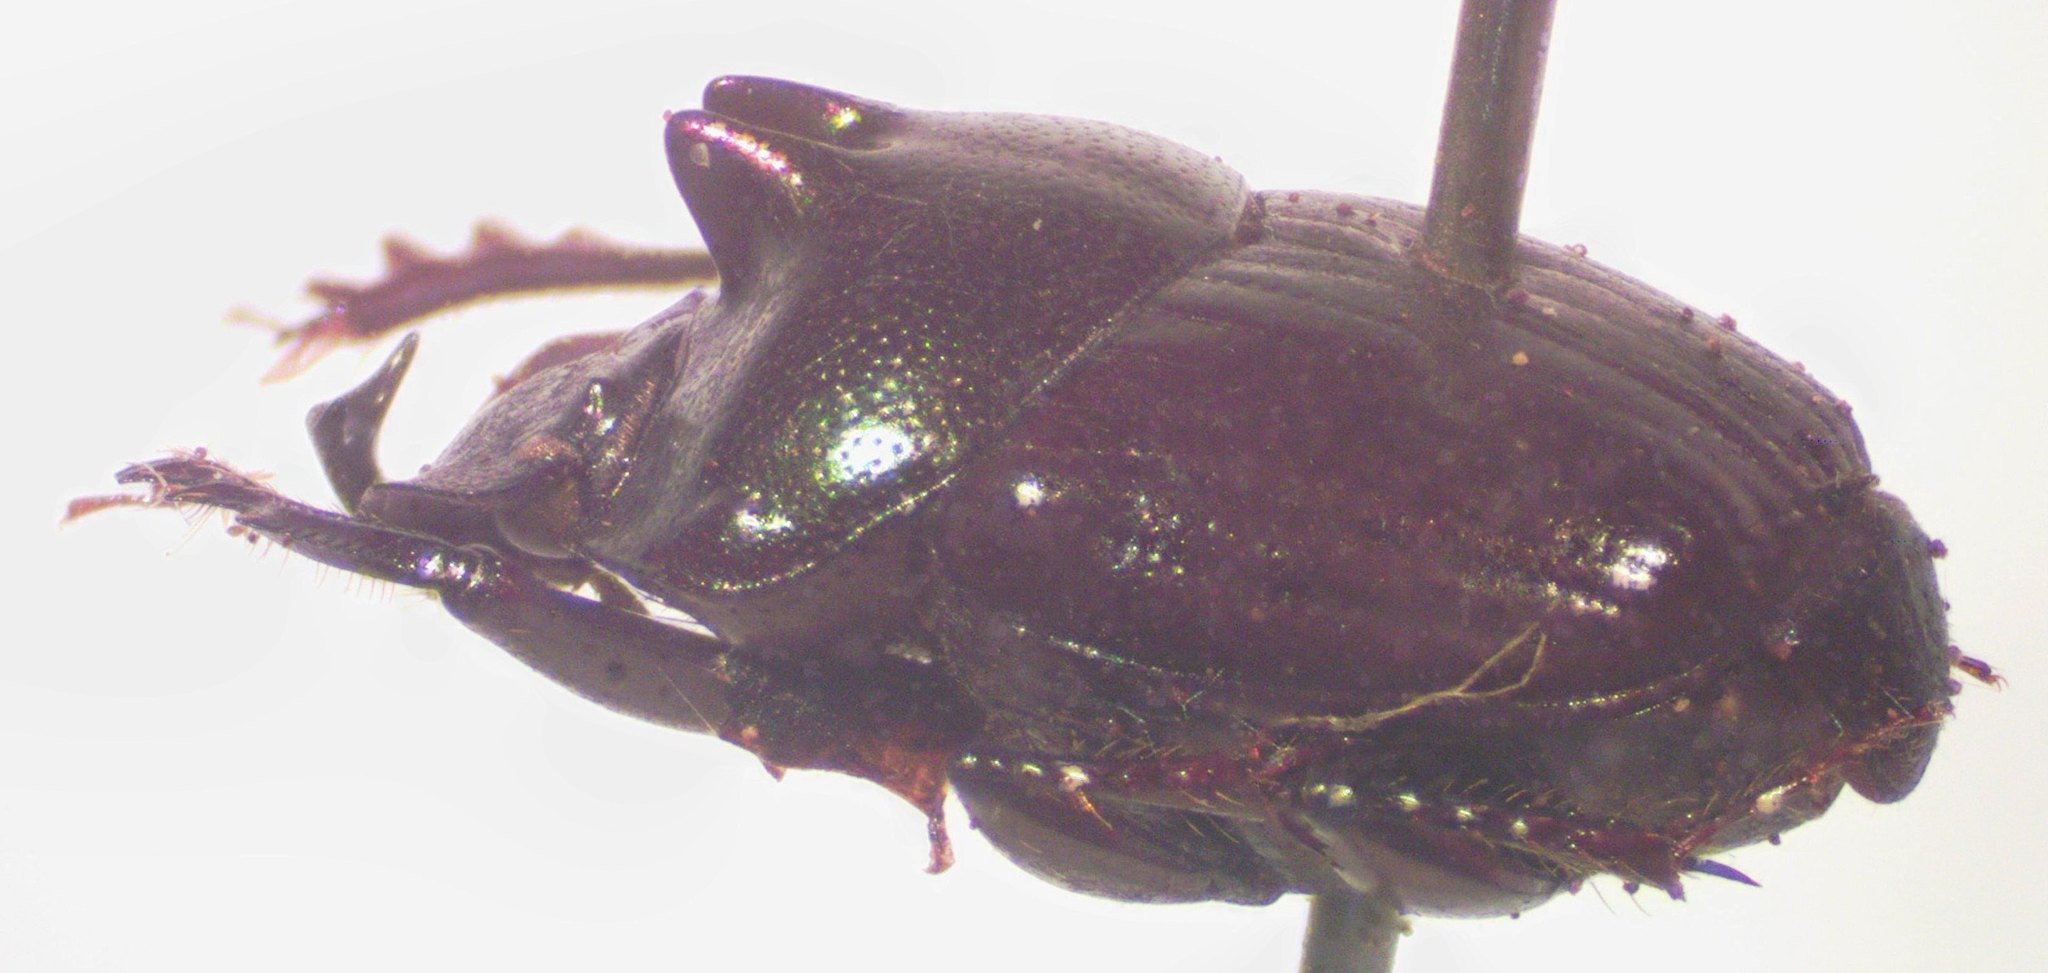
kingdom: Animalia
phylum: Arthropoda
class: Insecta
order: Coleoptera
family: Scarabaeidae
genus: Onthophagus
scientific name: Onthophagus praecellens
